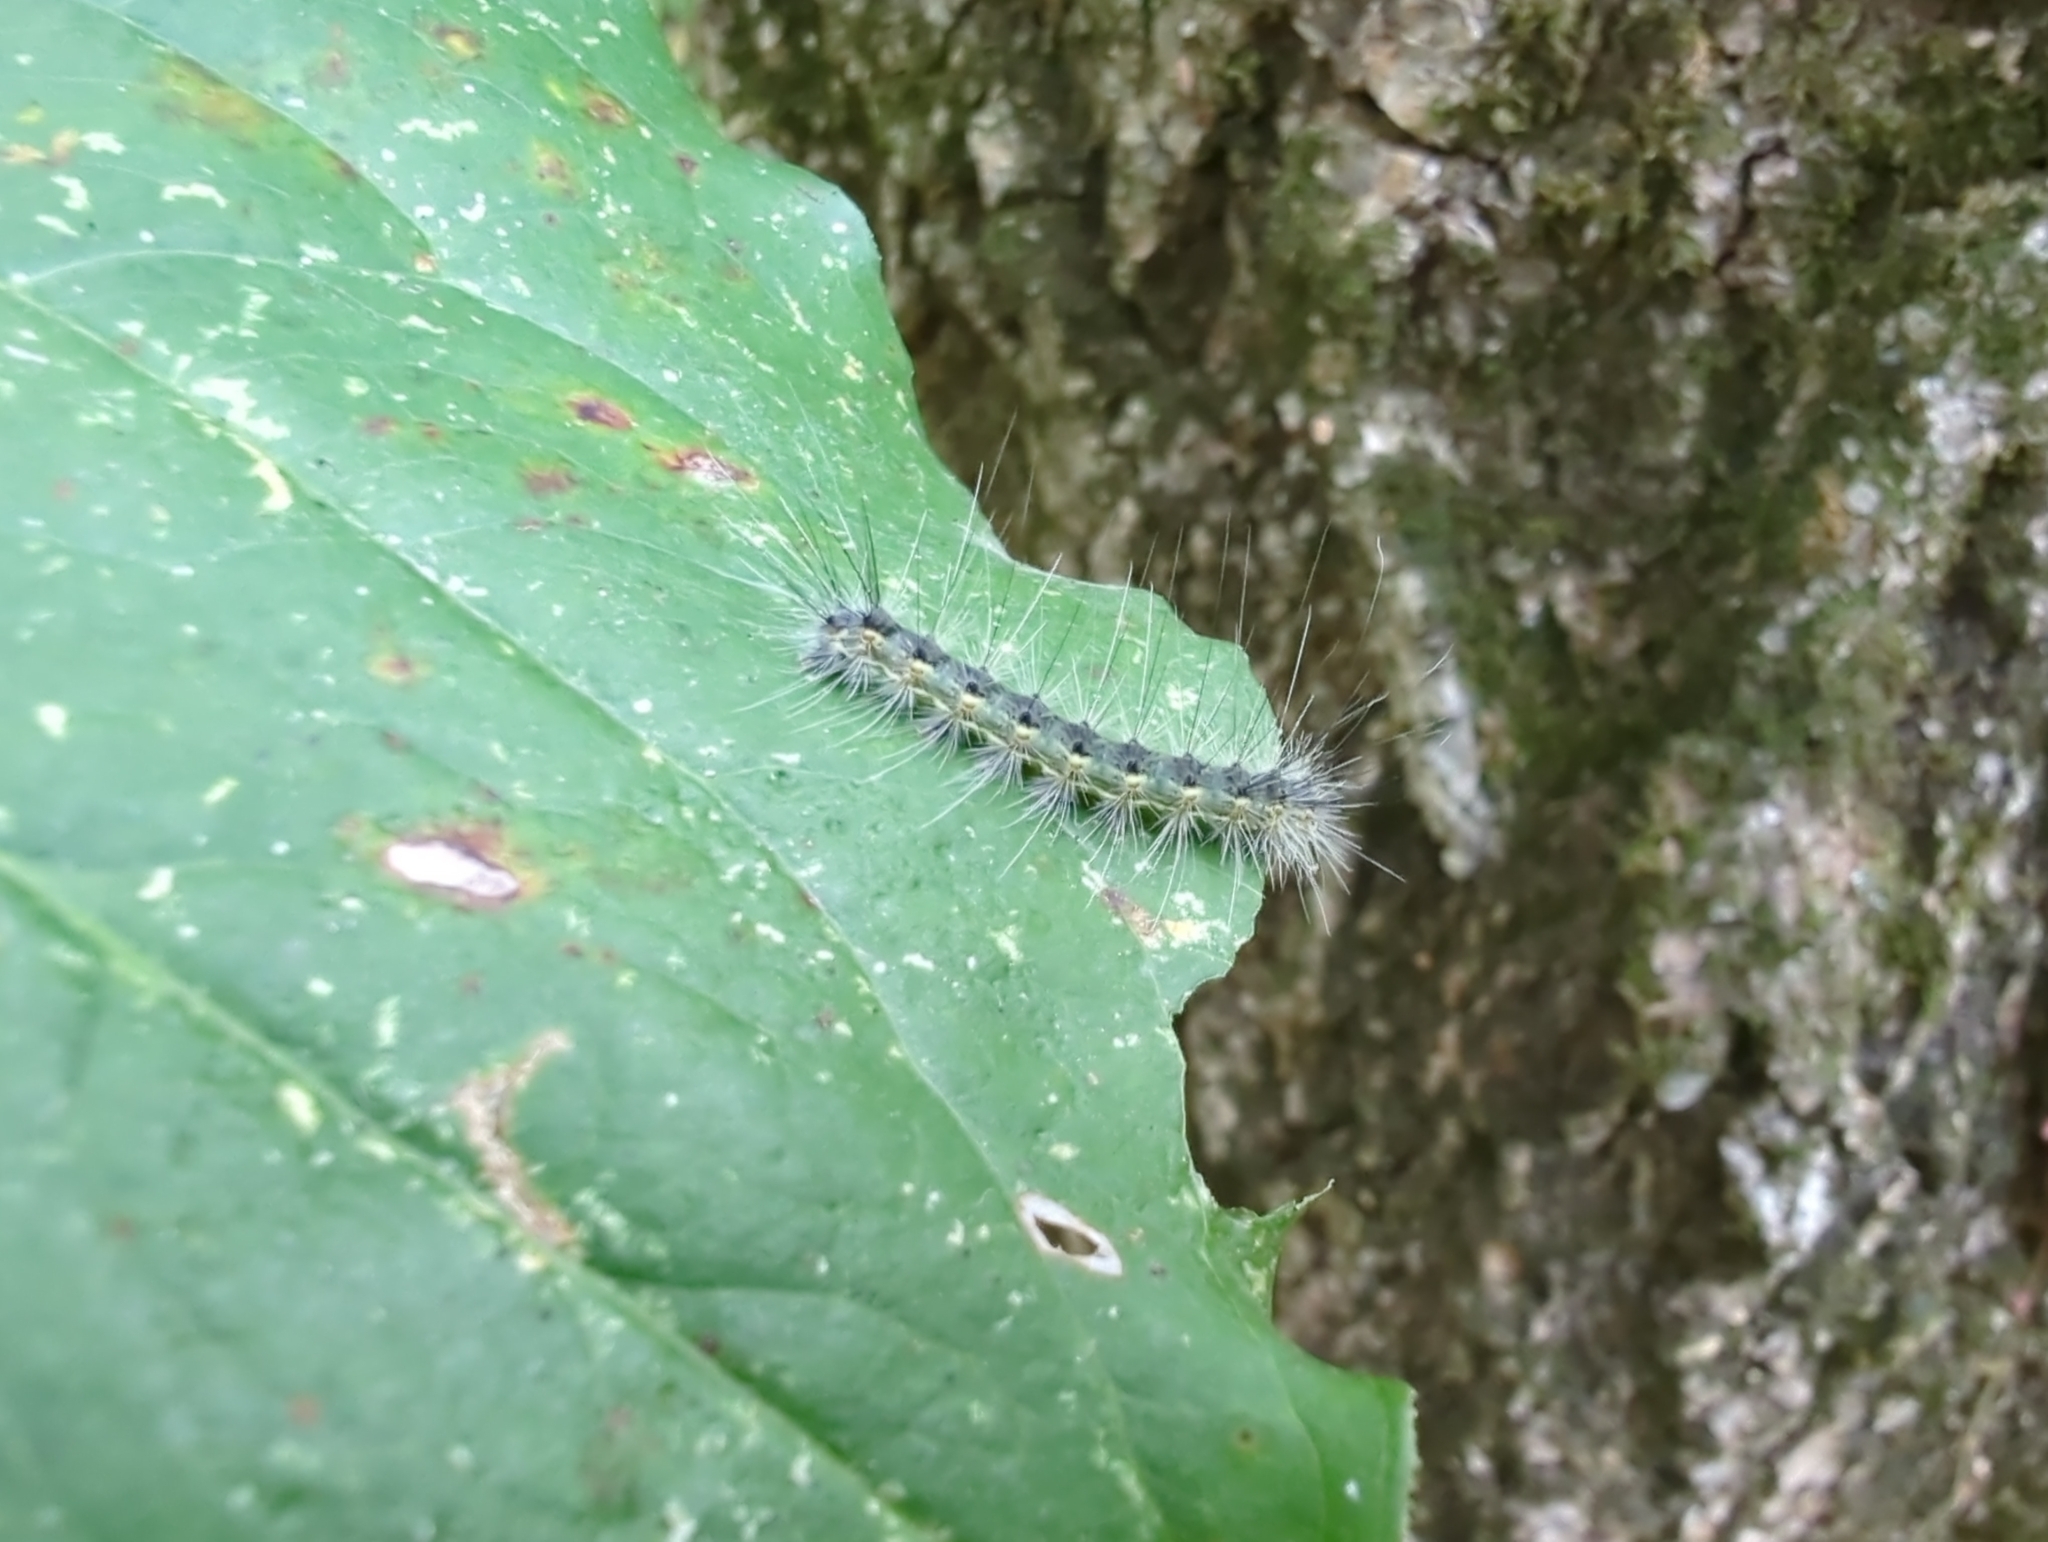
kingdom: Animalia
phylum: Arthropoda
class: Insecta
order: Lepidoptera
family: Erebidae
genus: Hyphantria
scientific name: Hyphantria cunea
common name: American white moth
